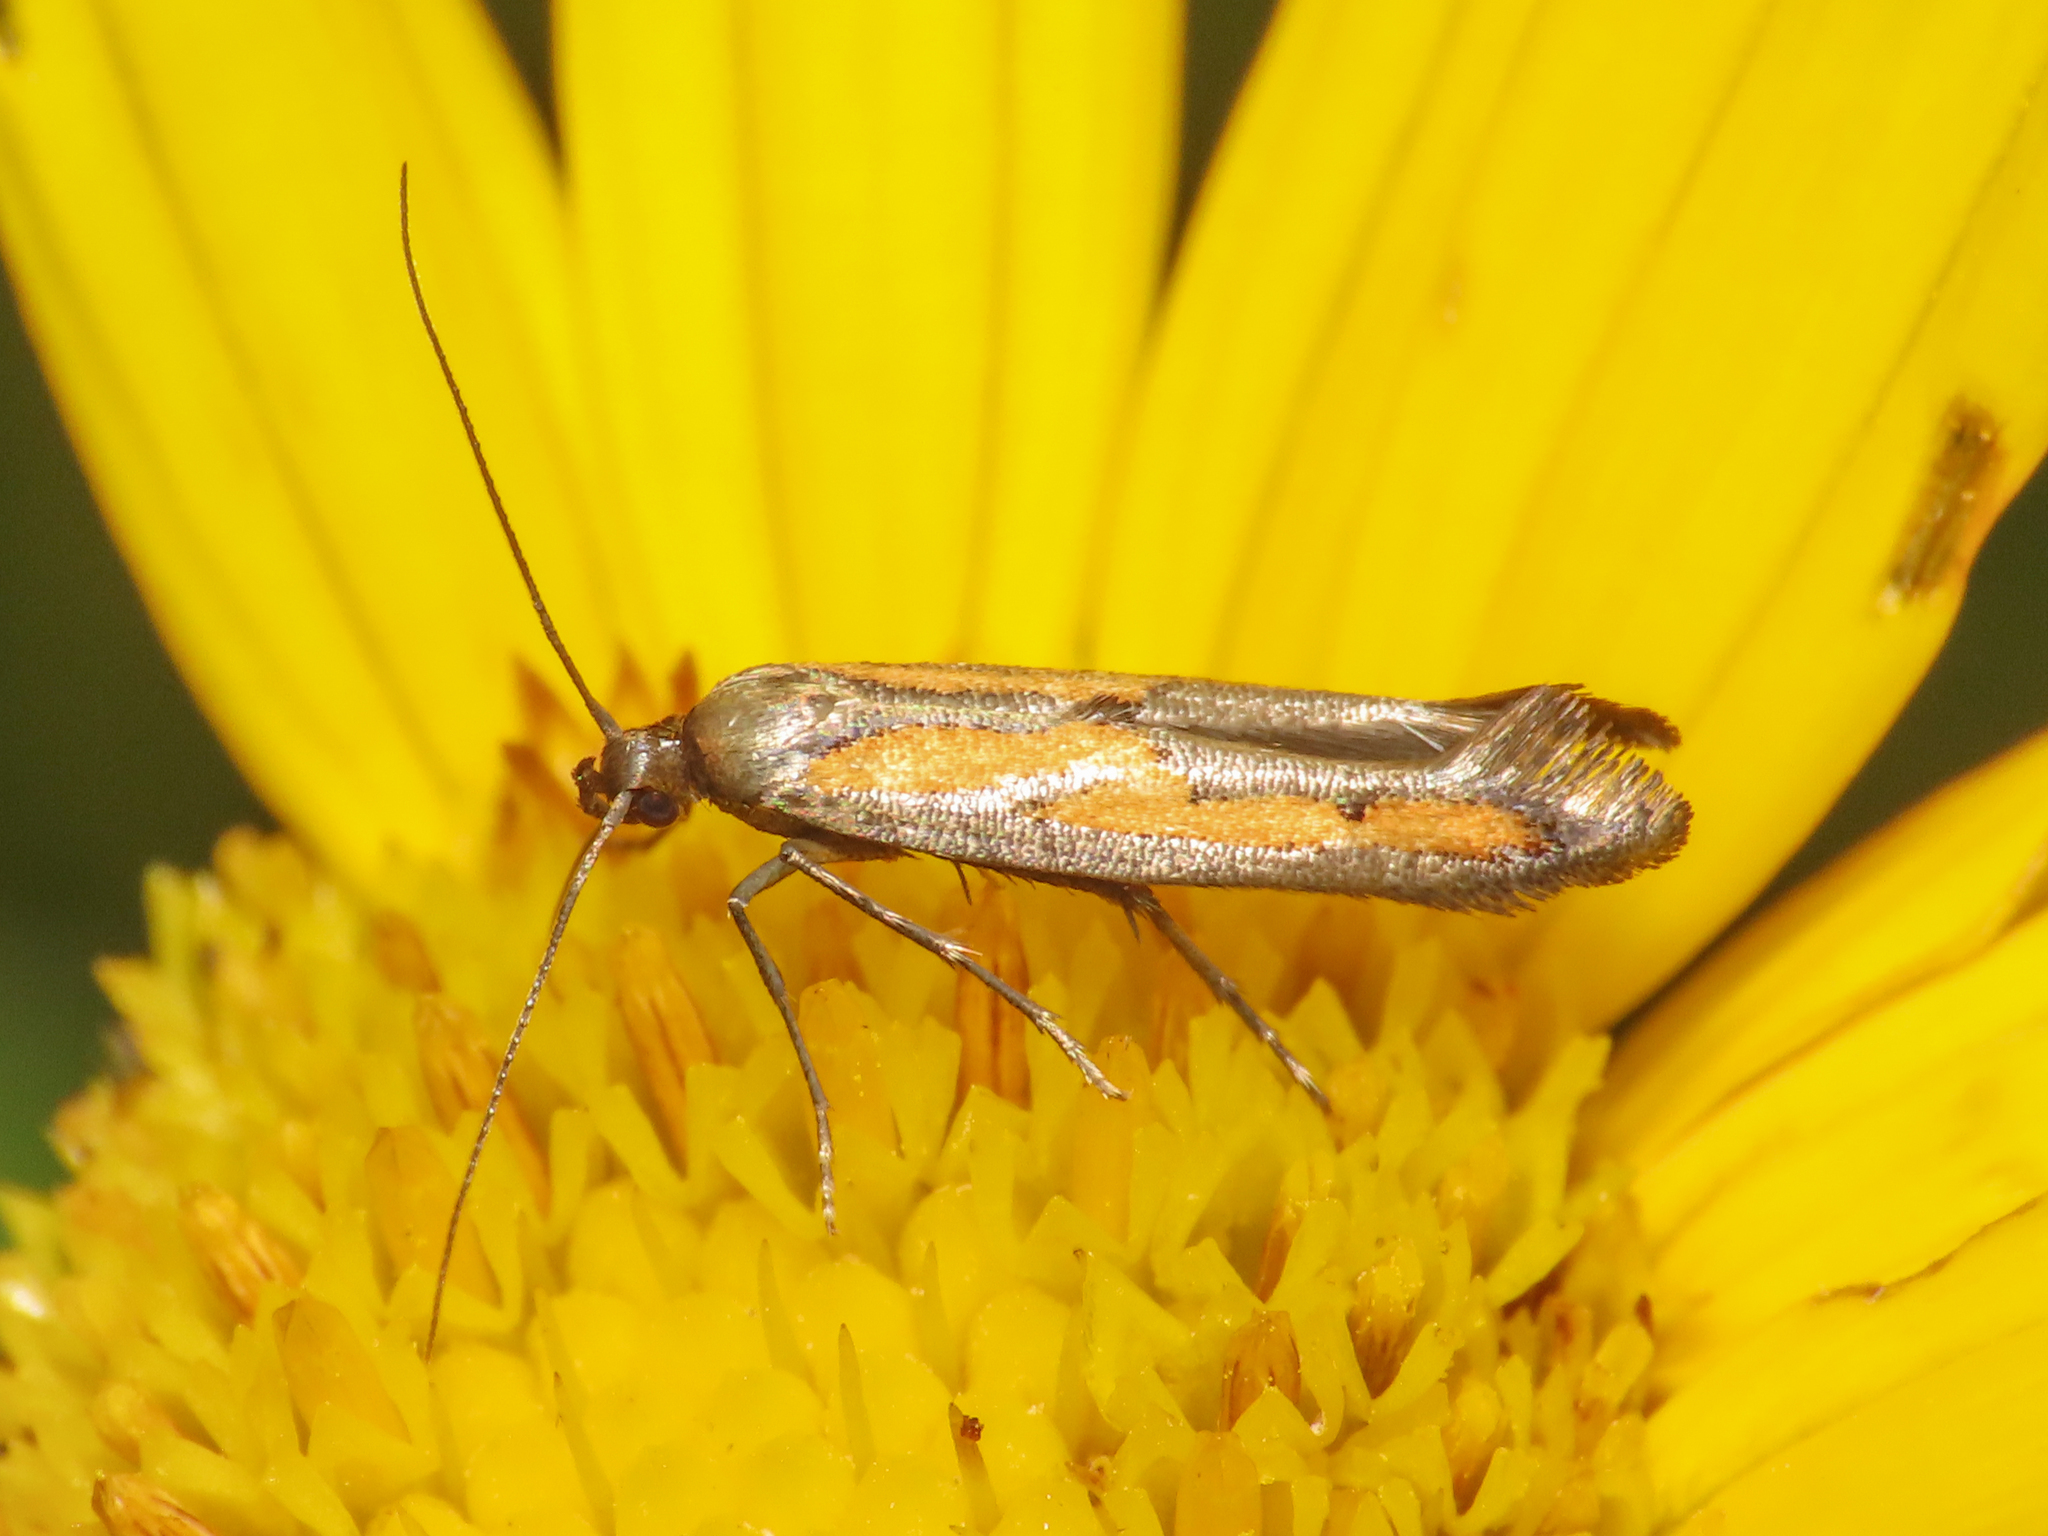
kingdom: Animalia
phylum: Arthropoda
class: Insecta
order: Lepidoptera
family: Epermeniidae
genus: Ochromolopis
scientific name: Ochromolopis ictella
